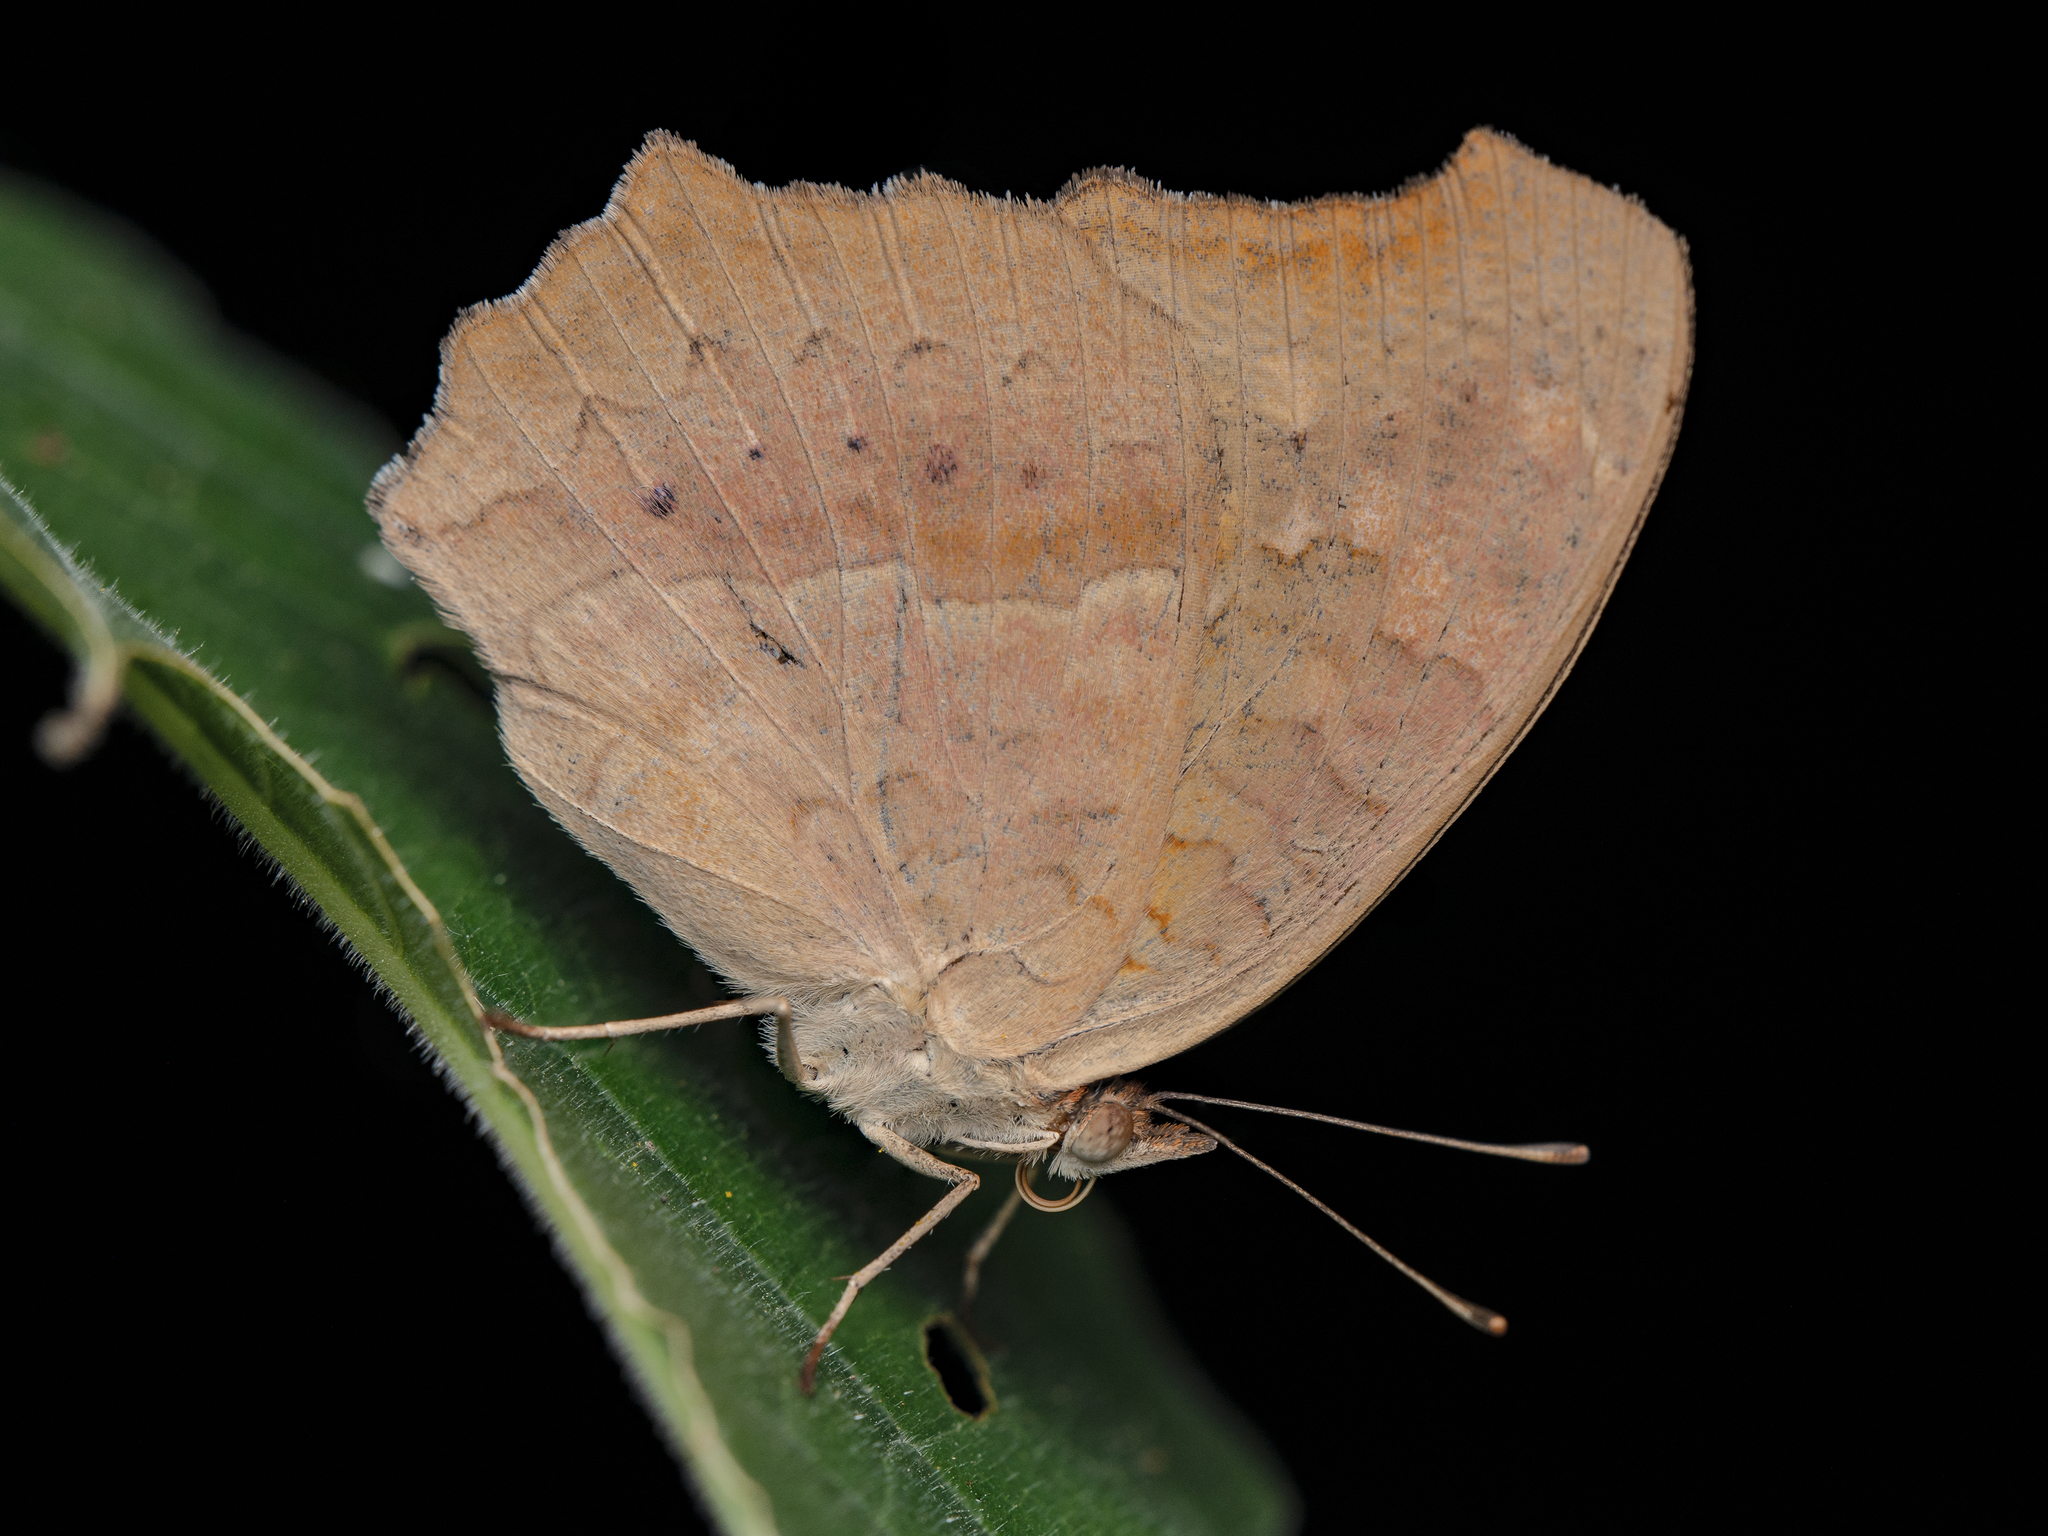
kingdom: Animalia
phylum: Arthropoda
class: Insecta
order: Lepidoptera
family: Nymphalidae
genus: Junonia
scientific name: Junonia lemonias
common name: Lemon pansy
